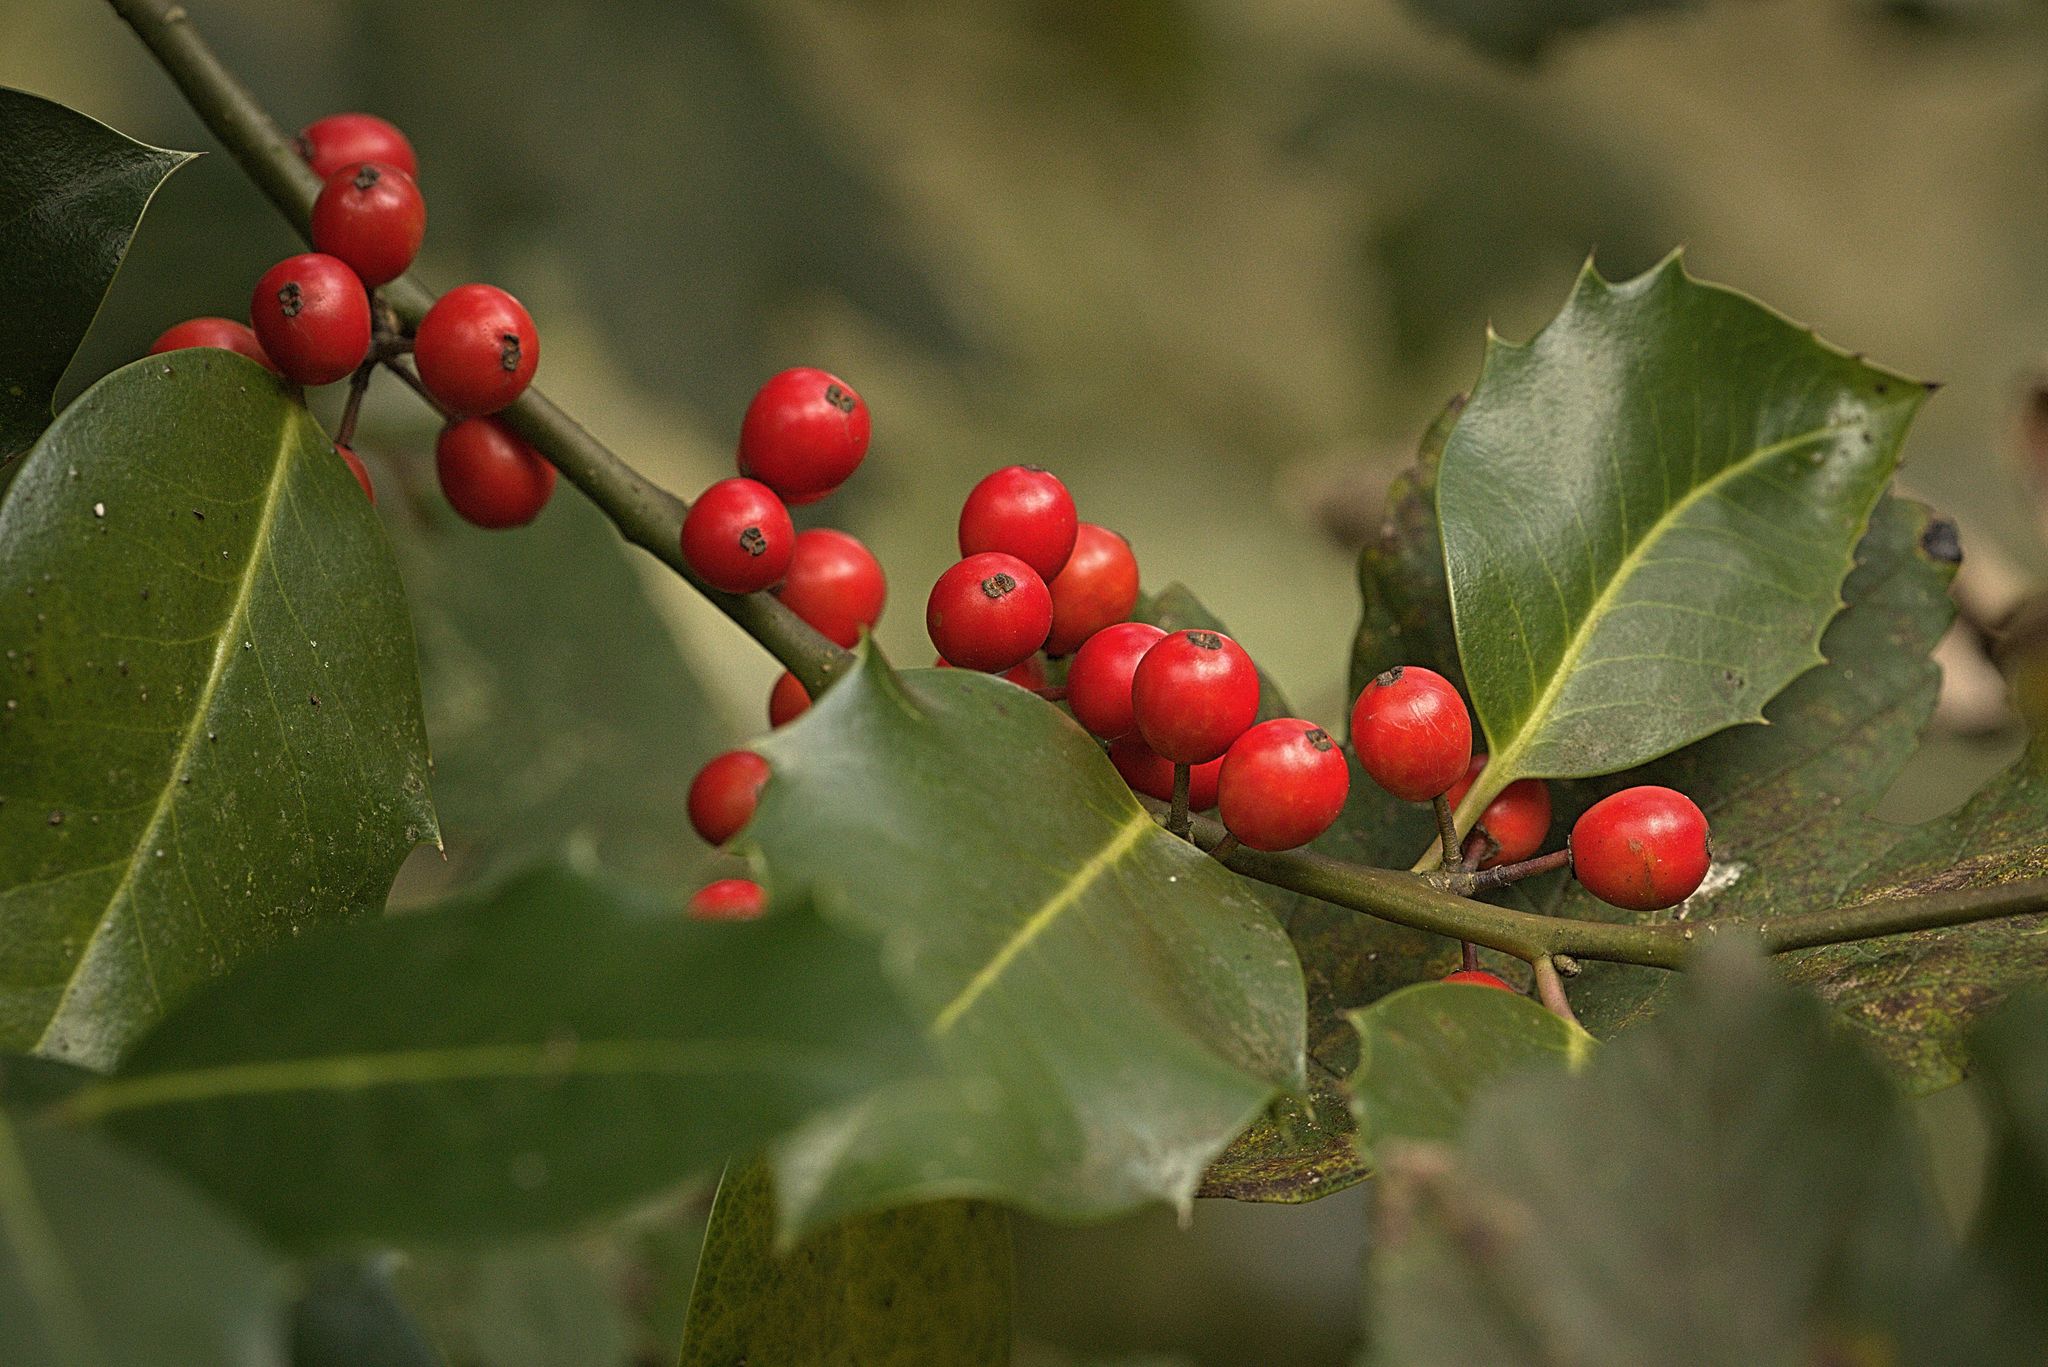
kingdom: Plantae
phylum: Tracheophyta
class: Magnoliopsida
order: Aquifoliales
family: Aquifoliaceae
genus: Ilex
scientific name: Ilex aquifolium
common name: English holly
